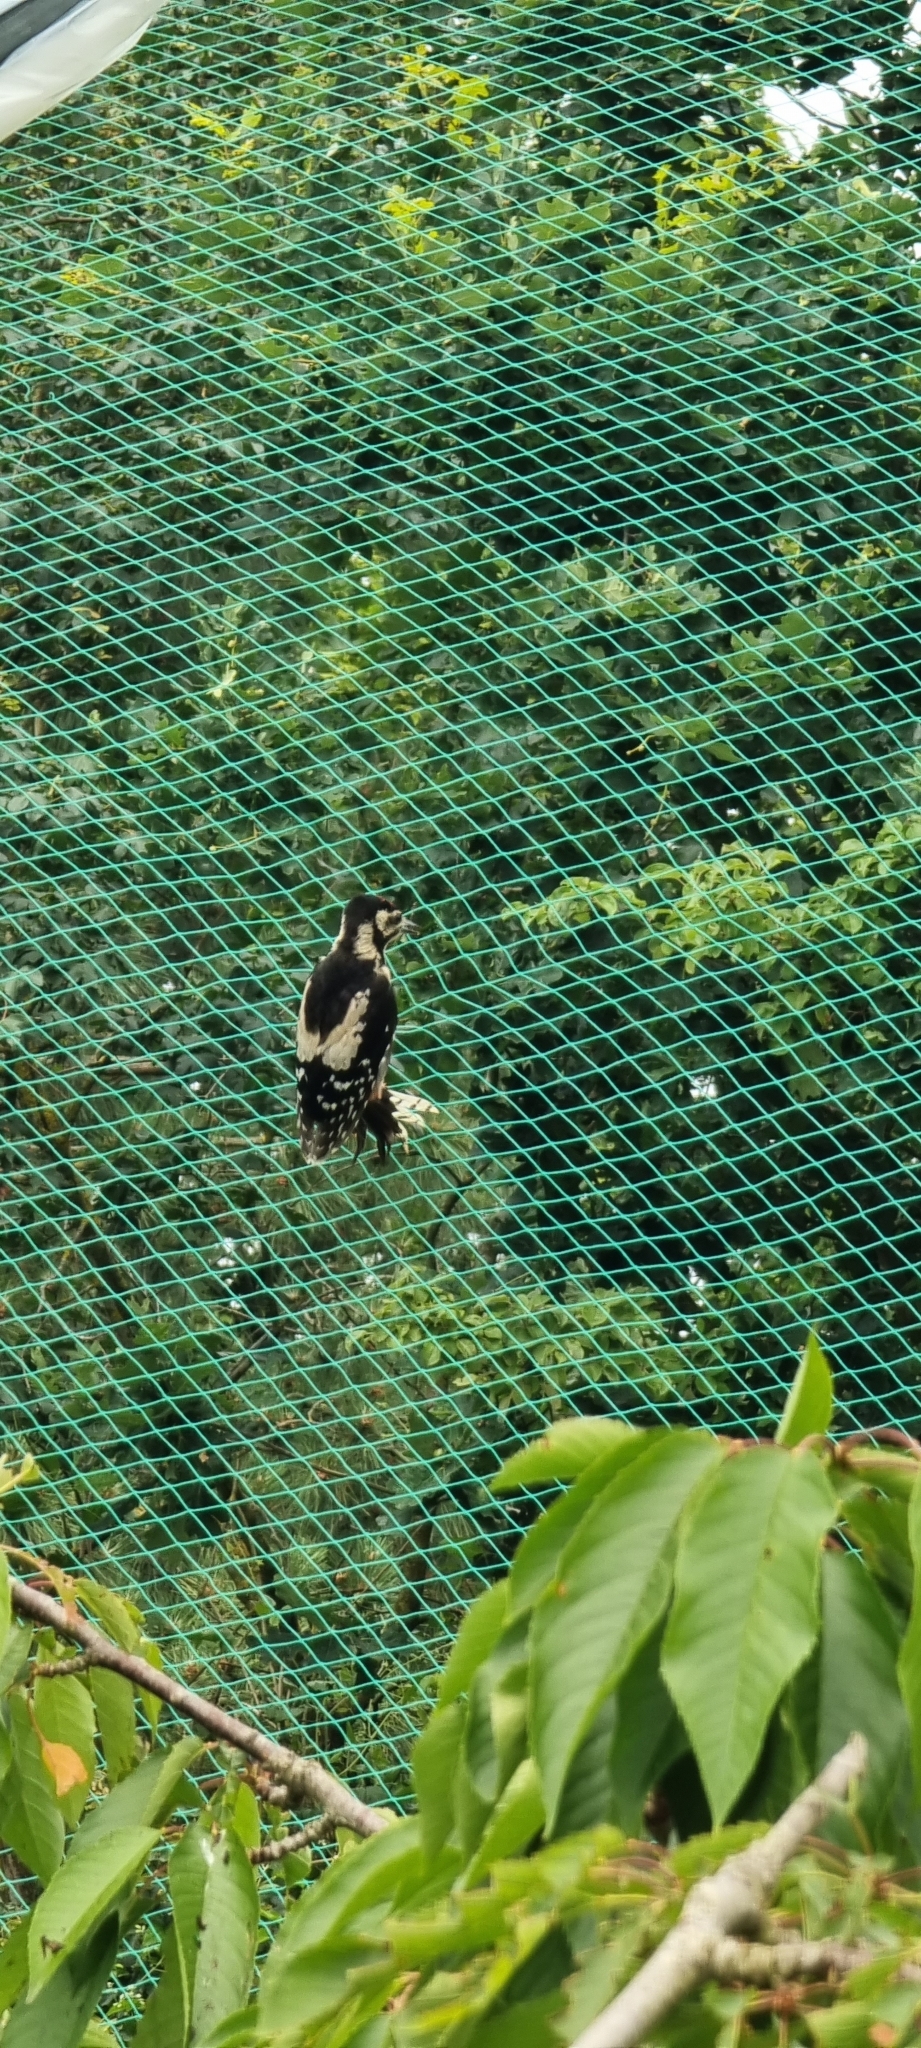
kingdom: Animalia
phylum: Chordata
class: Aves
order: Piciformes
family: Picidae
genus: Dendrocopos
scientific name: Dendrocopos major
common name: Great spotted woodpecker
